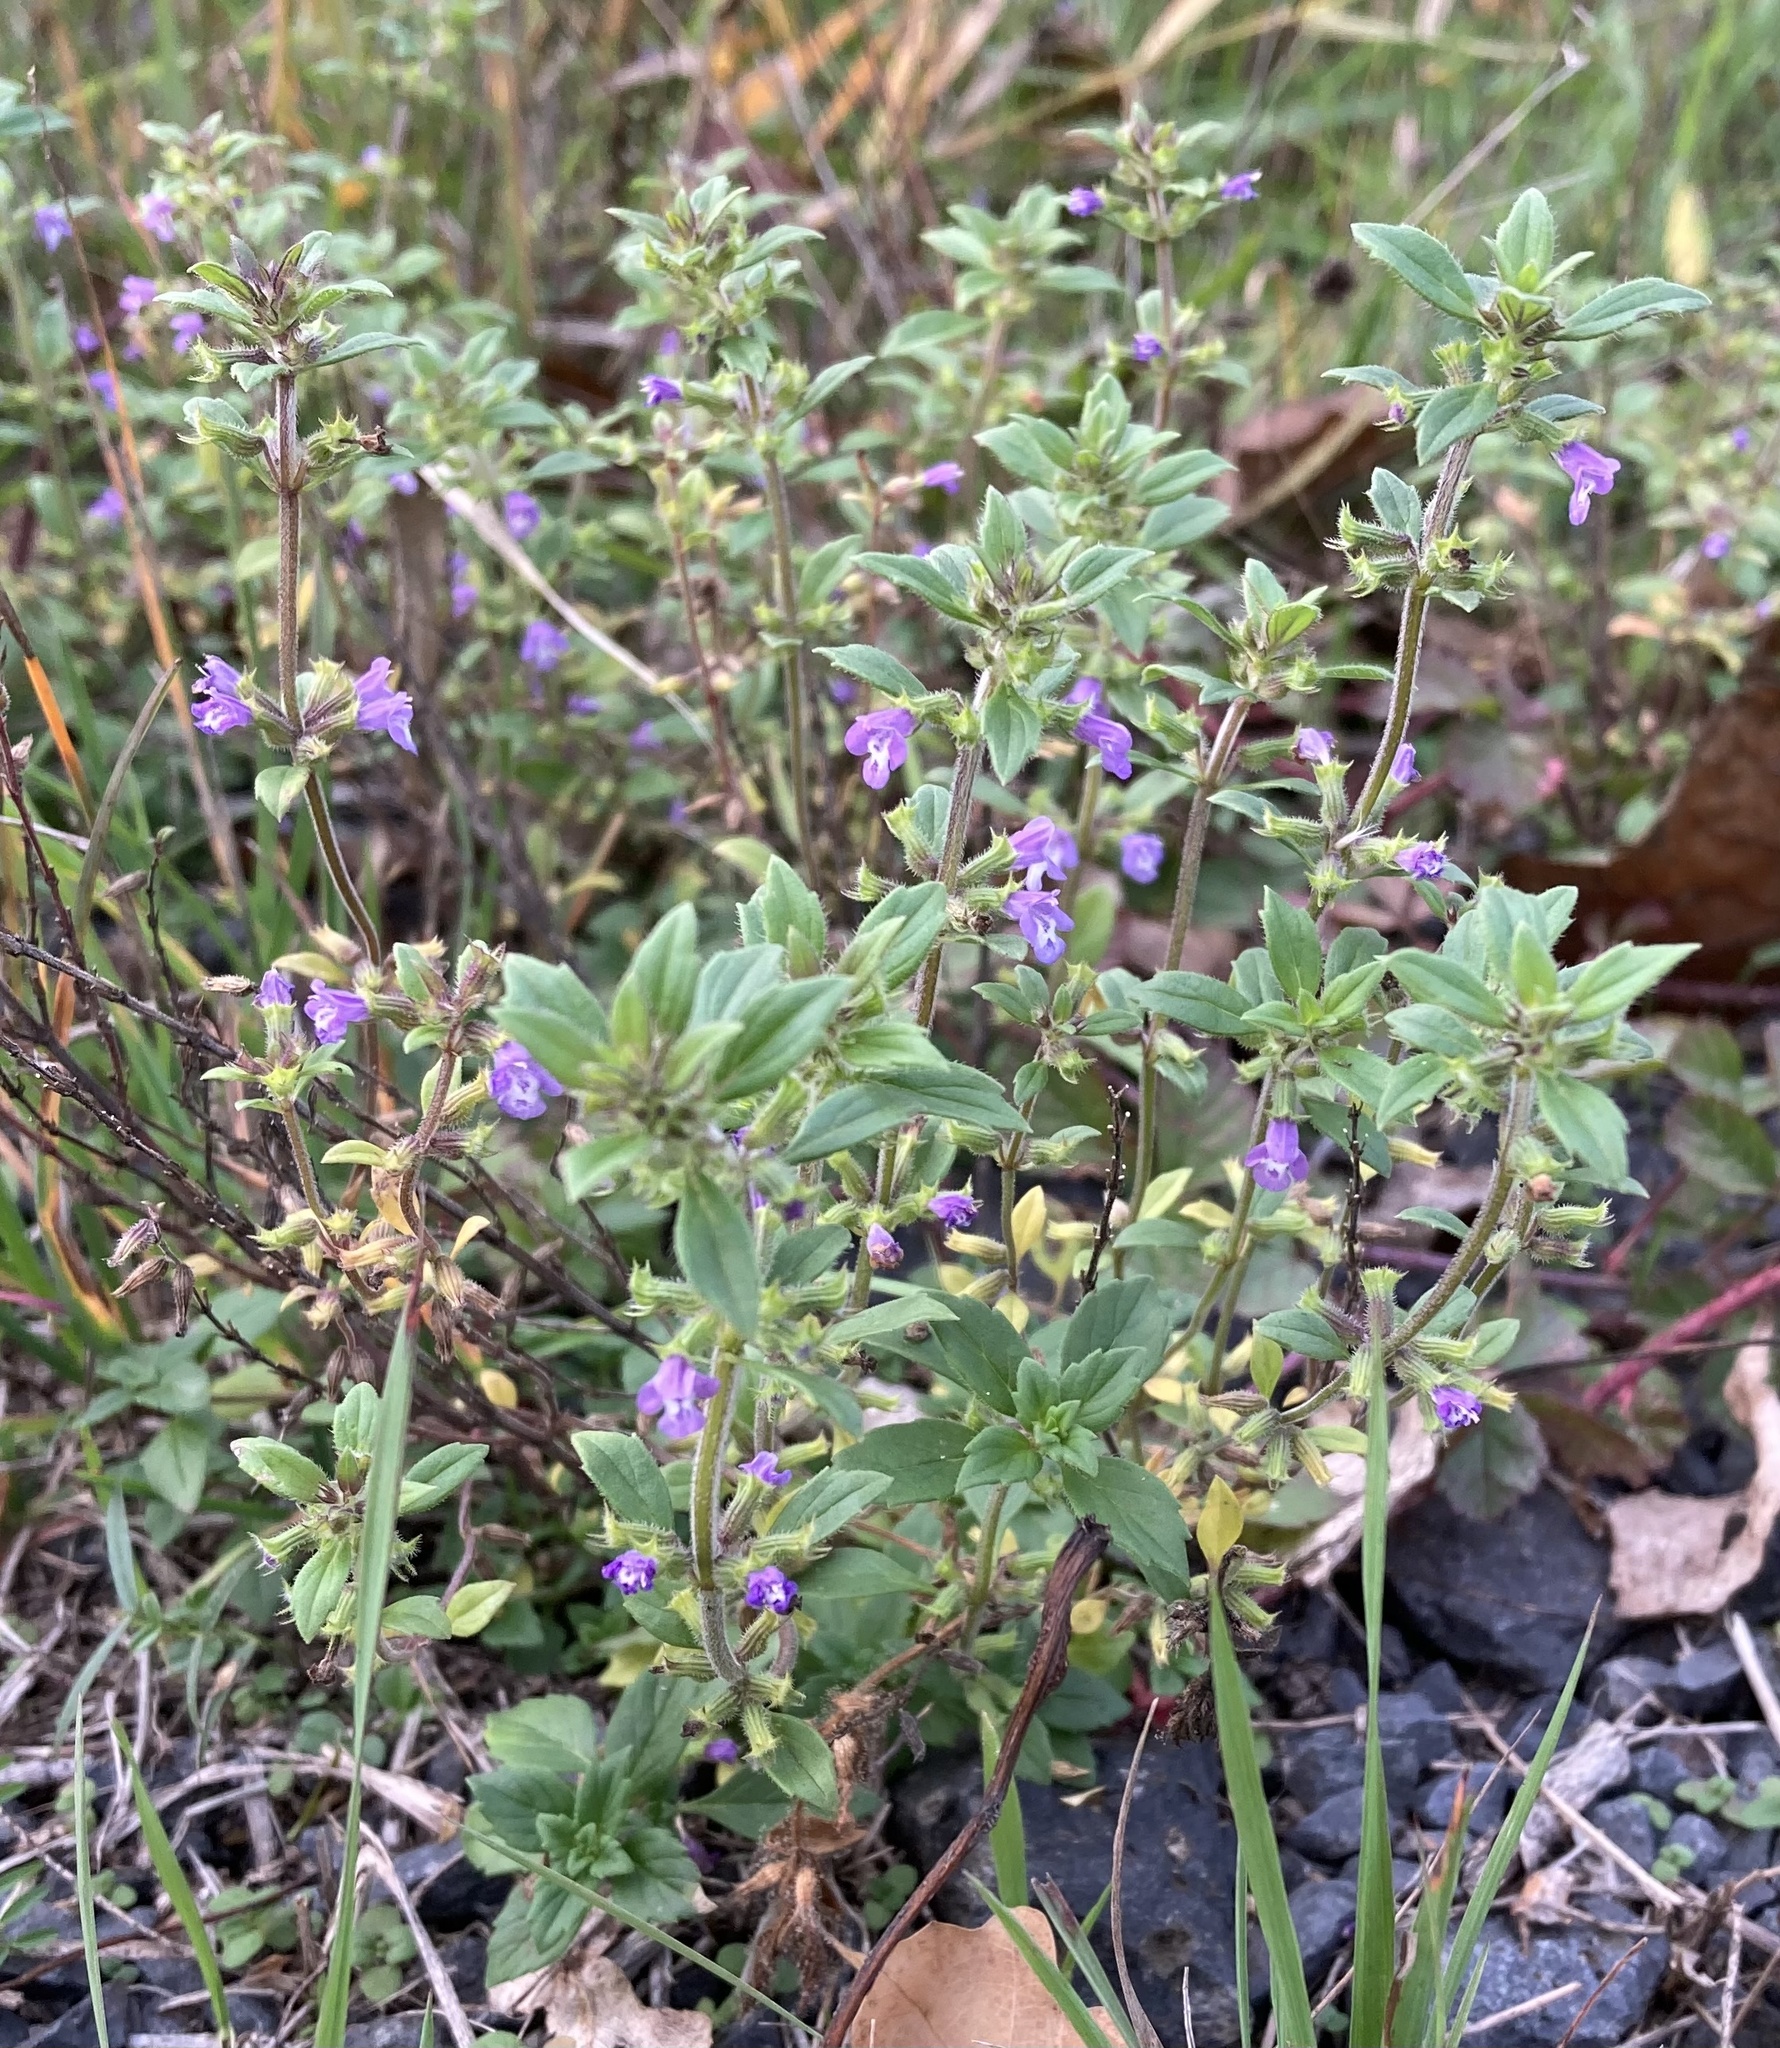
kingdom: Plantae
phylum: Tracheophyta
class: Magnoliopsida
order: Lamiales
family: Lamiaceae
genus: Clinopodium
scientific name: Clinopodium acinos
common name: Basil thyme
